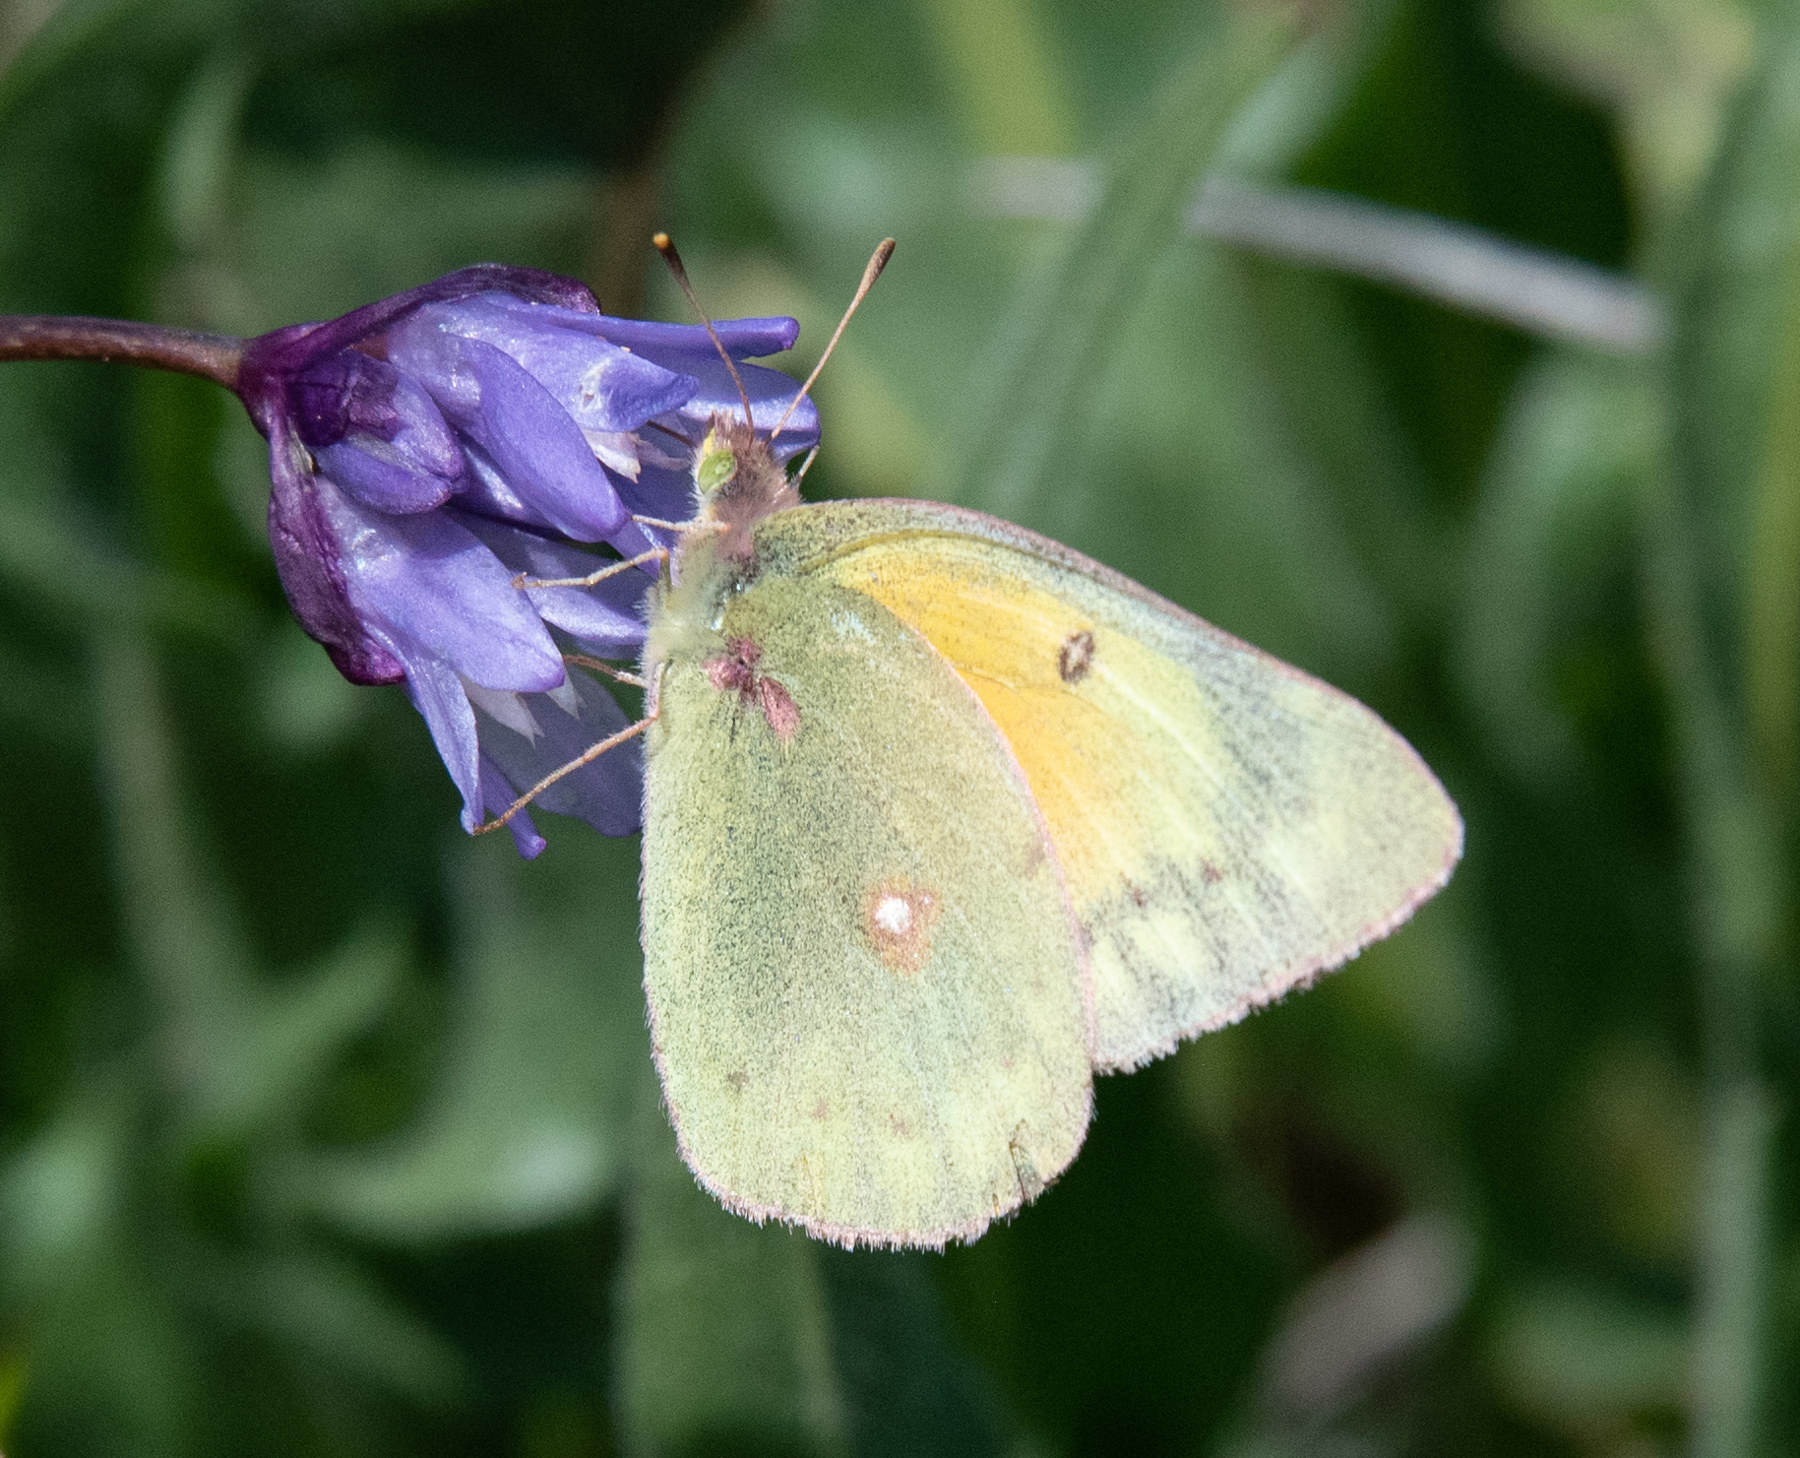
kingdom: Animalia
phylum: Arthropoda
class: Insecta
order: Lepidoptera
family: Pieridae
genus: Colias
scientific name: Colias eurytheme
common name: Alfalfa butterfly
